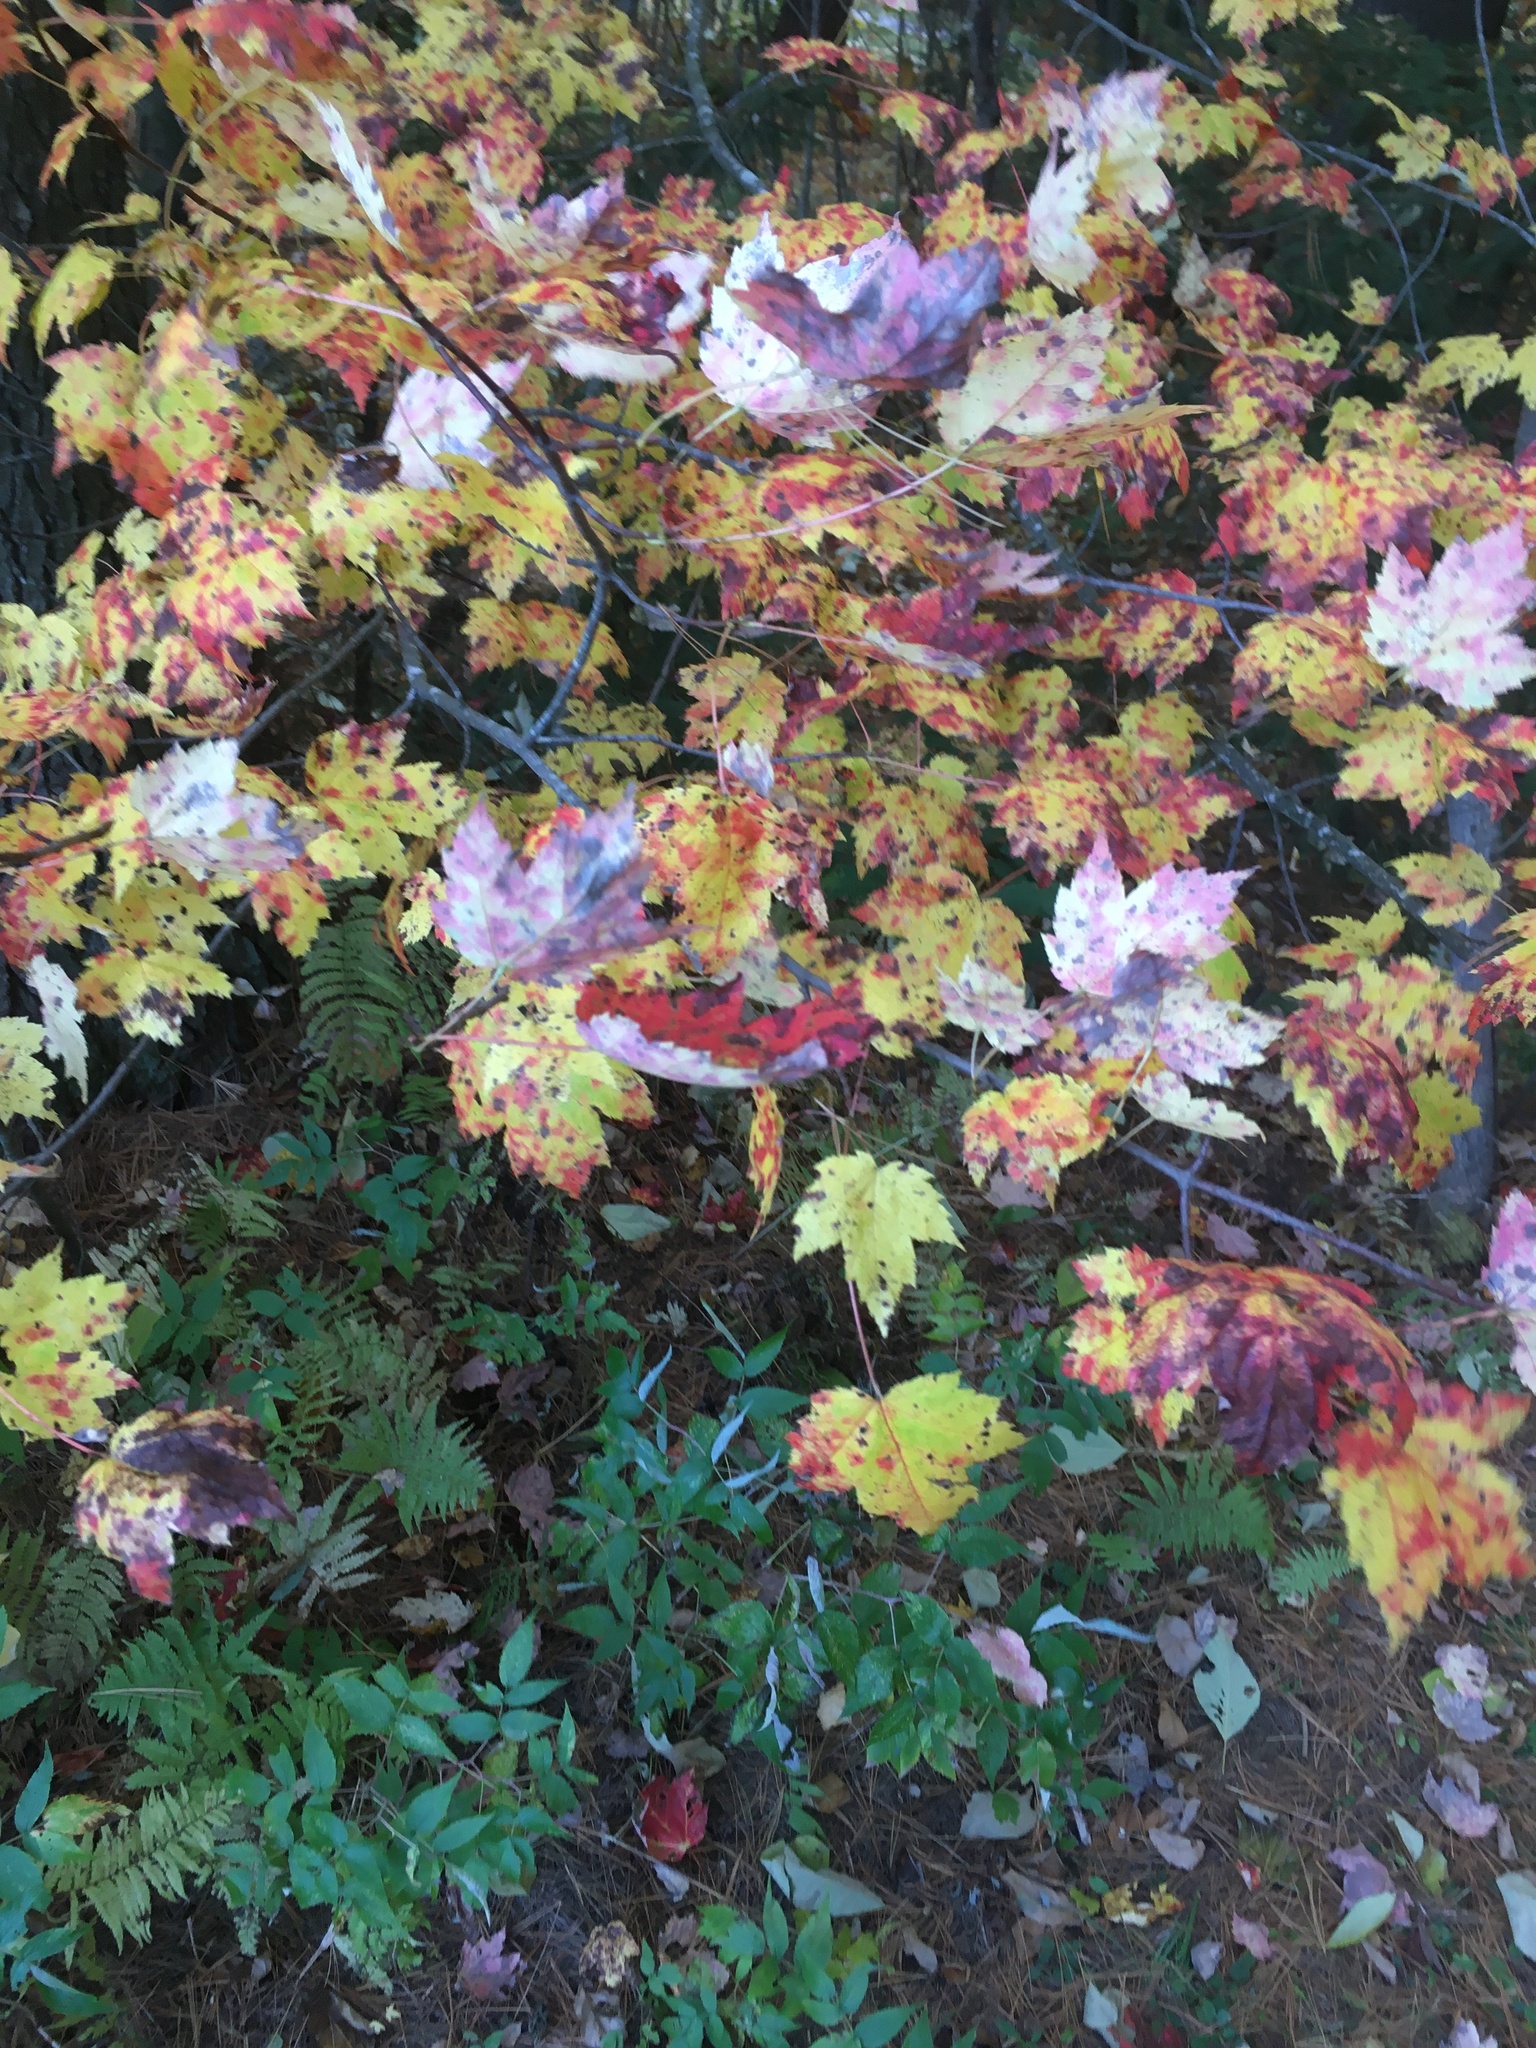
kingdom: Plantae
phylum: Tracheophyta
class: Magnoliopsida
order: Sapindales
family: Sapindaceae
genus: Acer
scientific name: Acer rubrum
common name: Red maple
